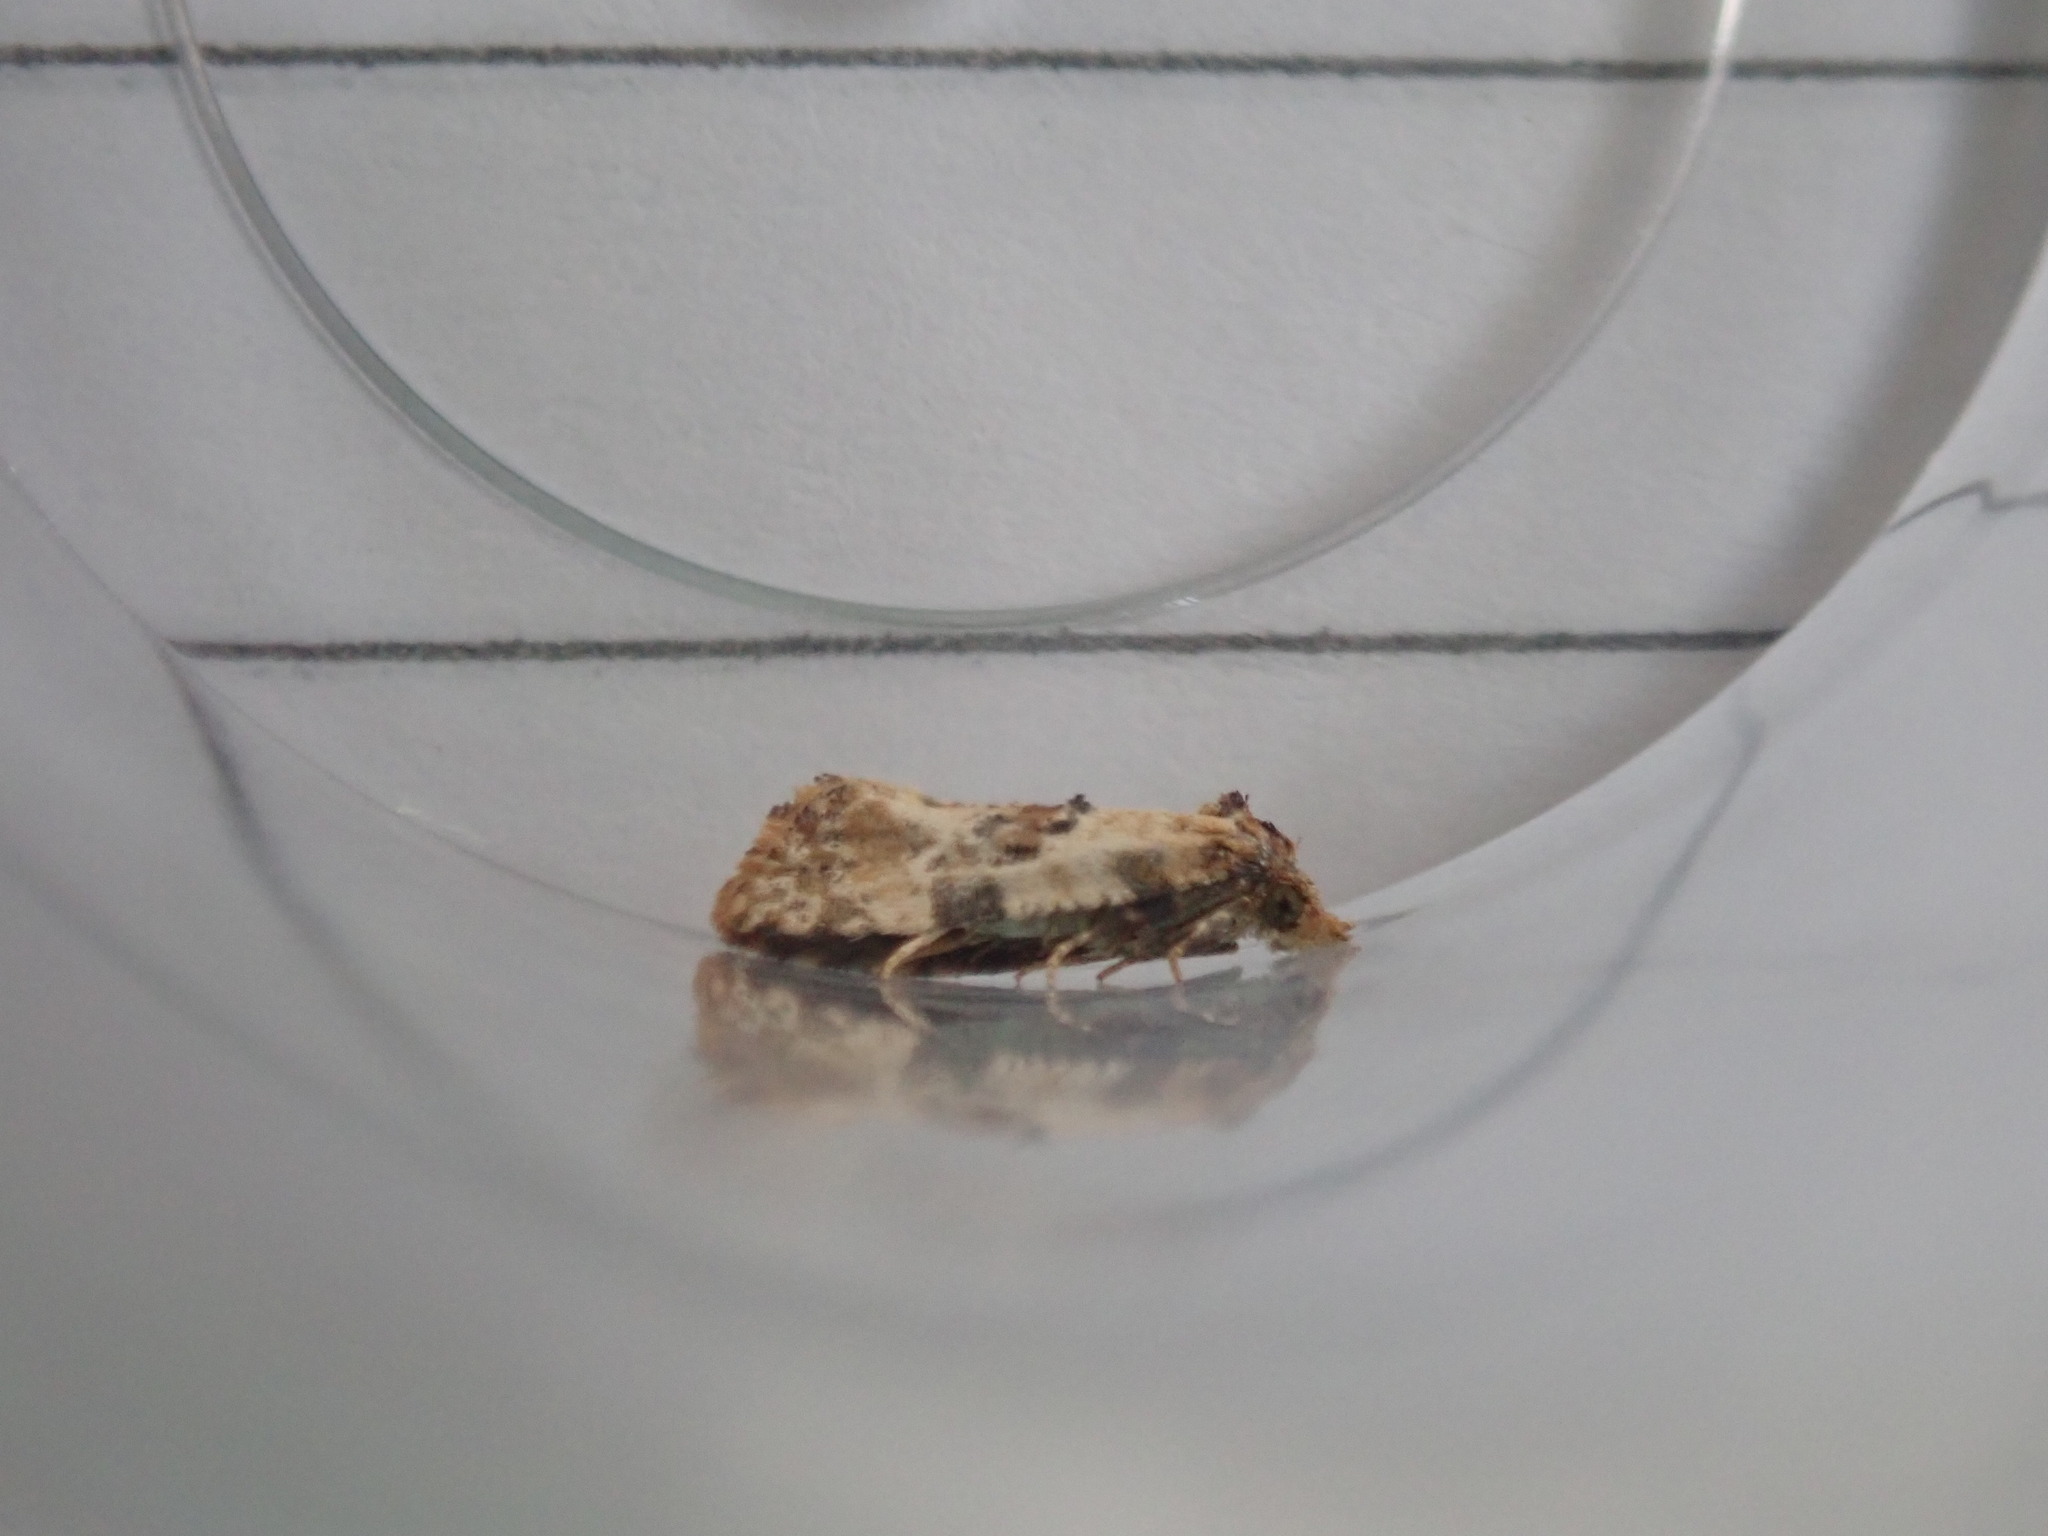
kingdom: Animalia
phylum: Arthropoda
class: Insecta
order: Lepidoptera
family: Tortricidae
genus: Cochylis
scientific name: Cochylis molliculana
